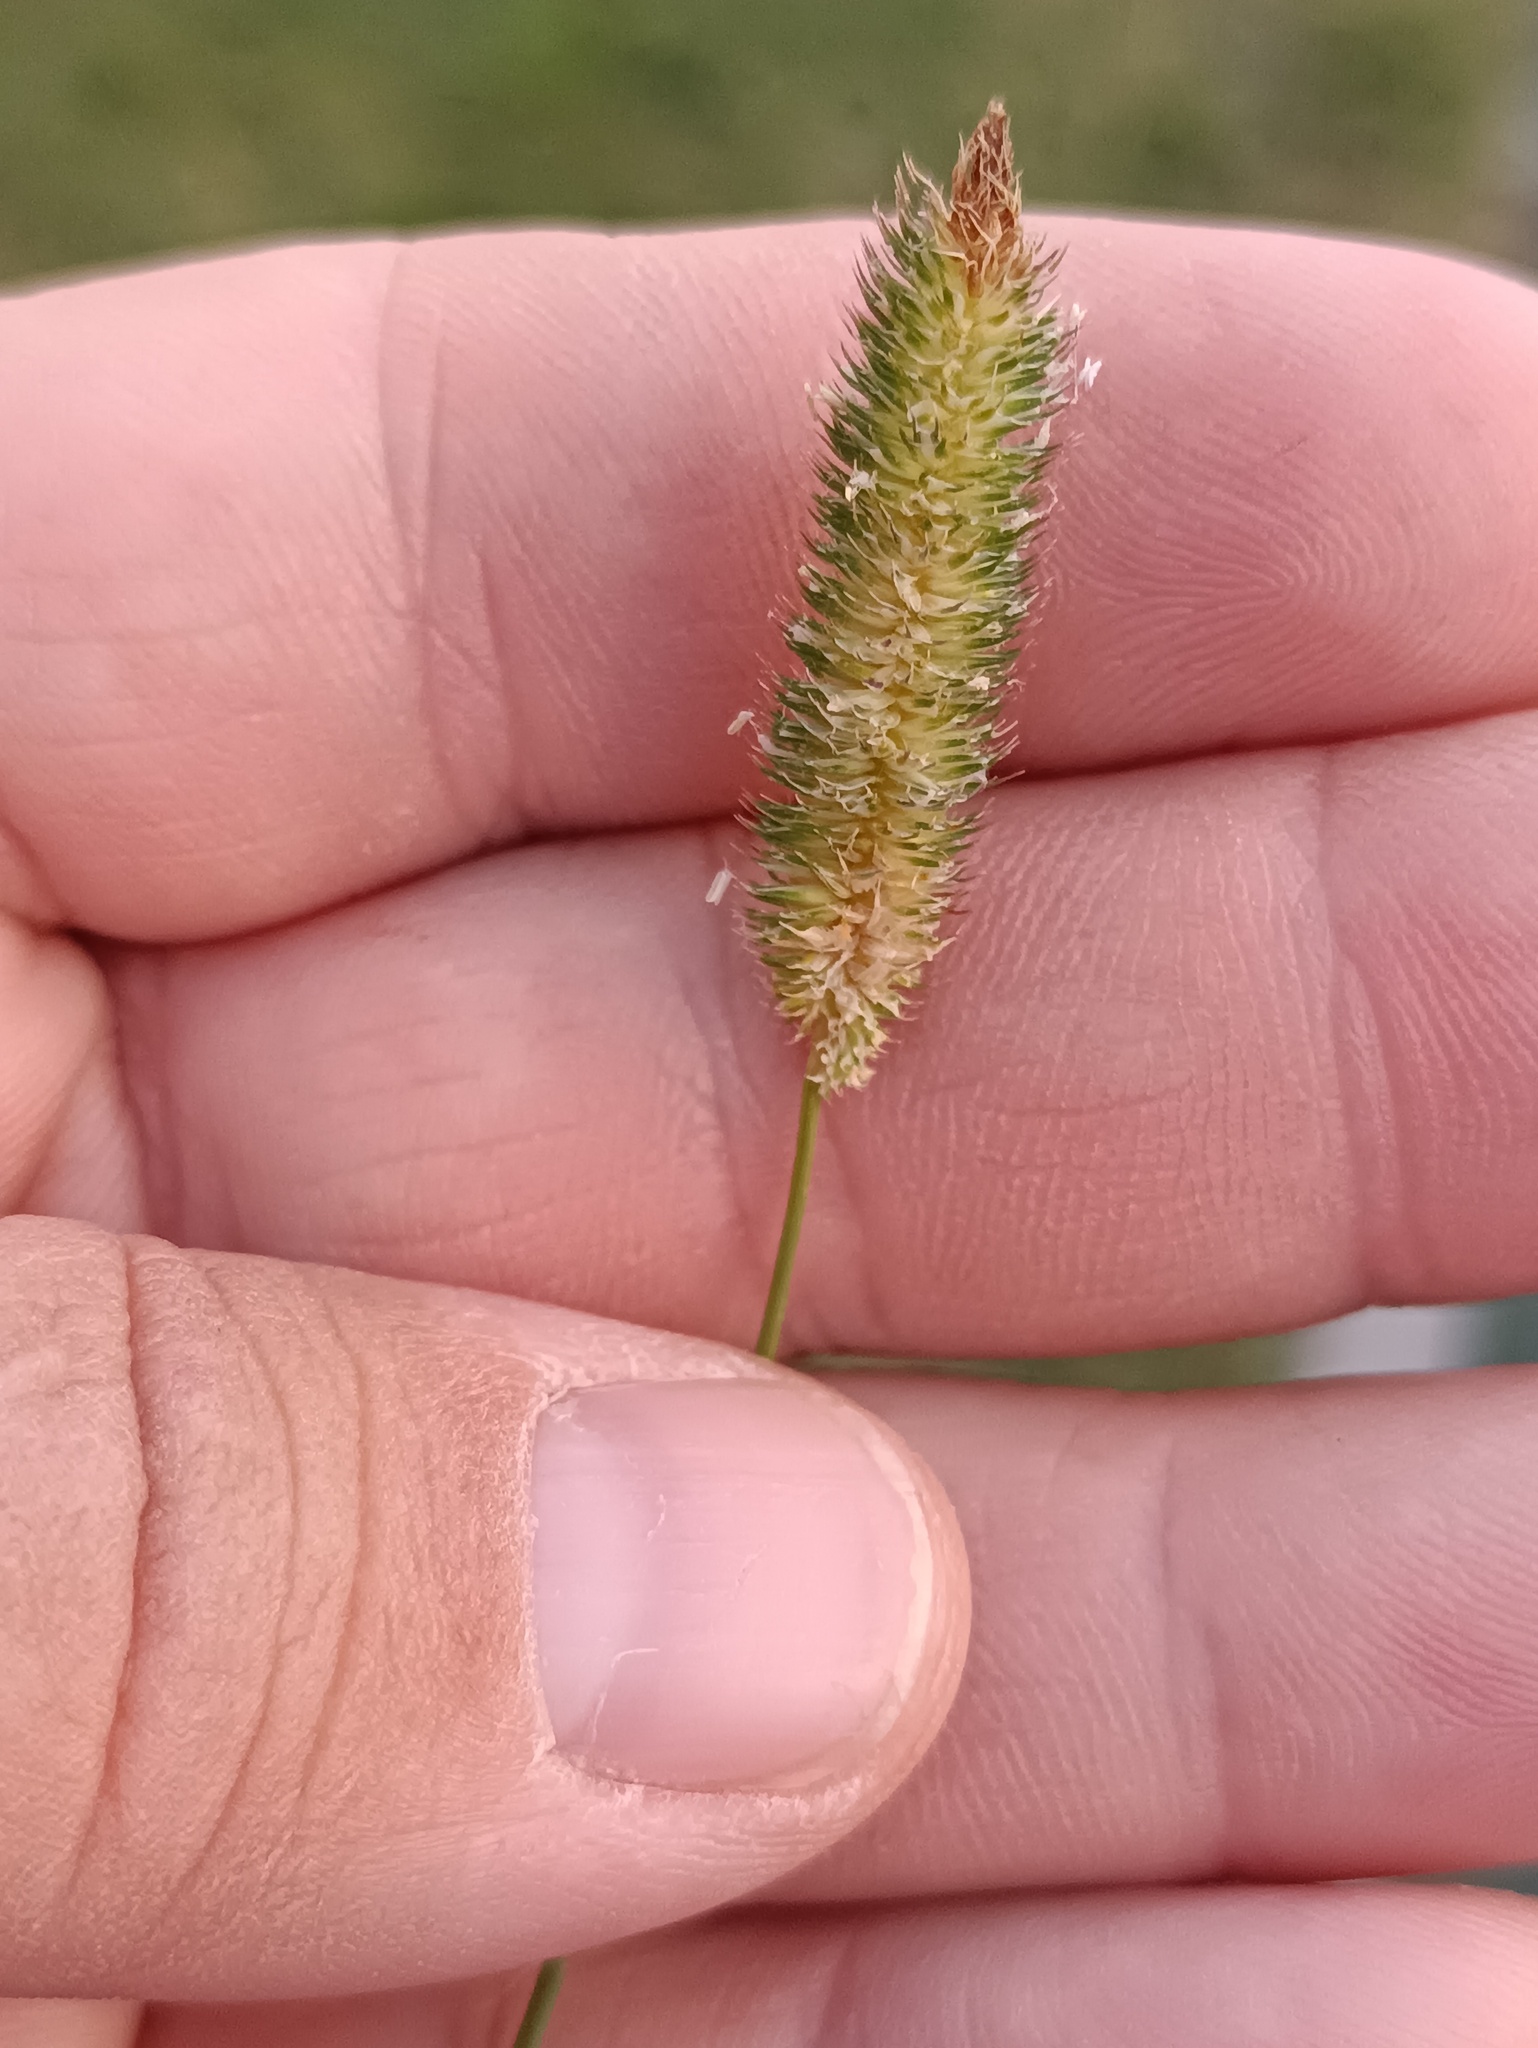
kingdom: Plantae
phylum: Tracheophyta
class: Liliopsida
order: Poales
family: Poaceae
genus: Phleum
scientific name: Phleum pratense
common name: Timothy grass
